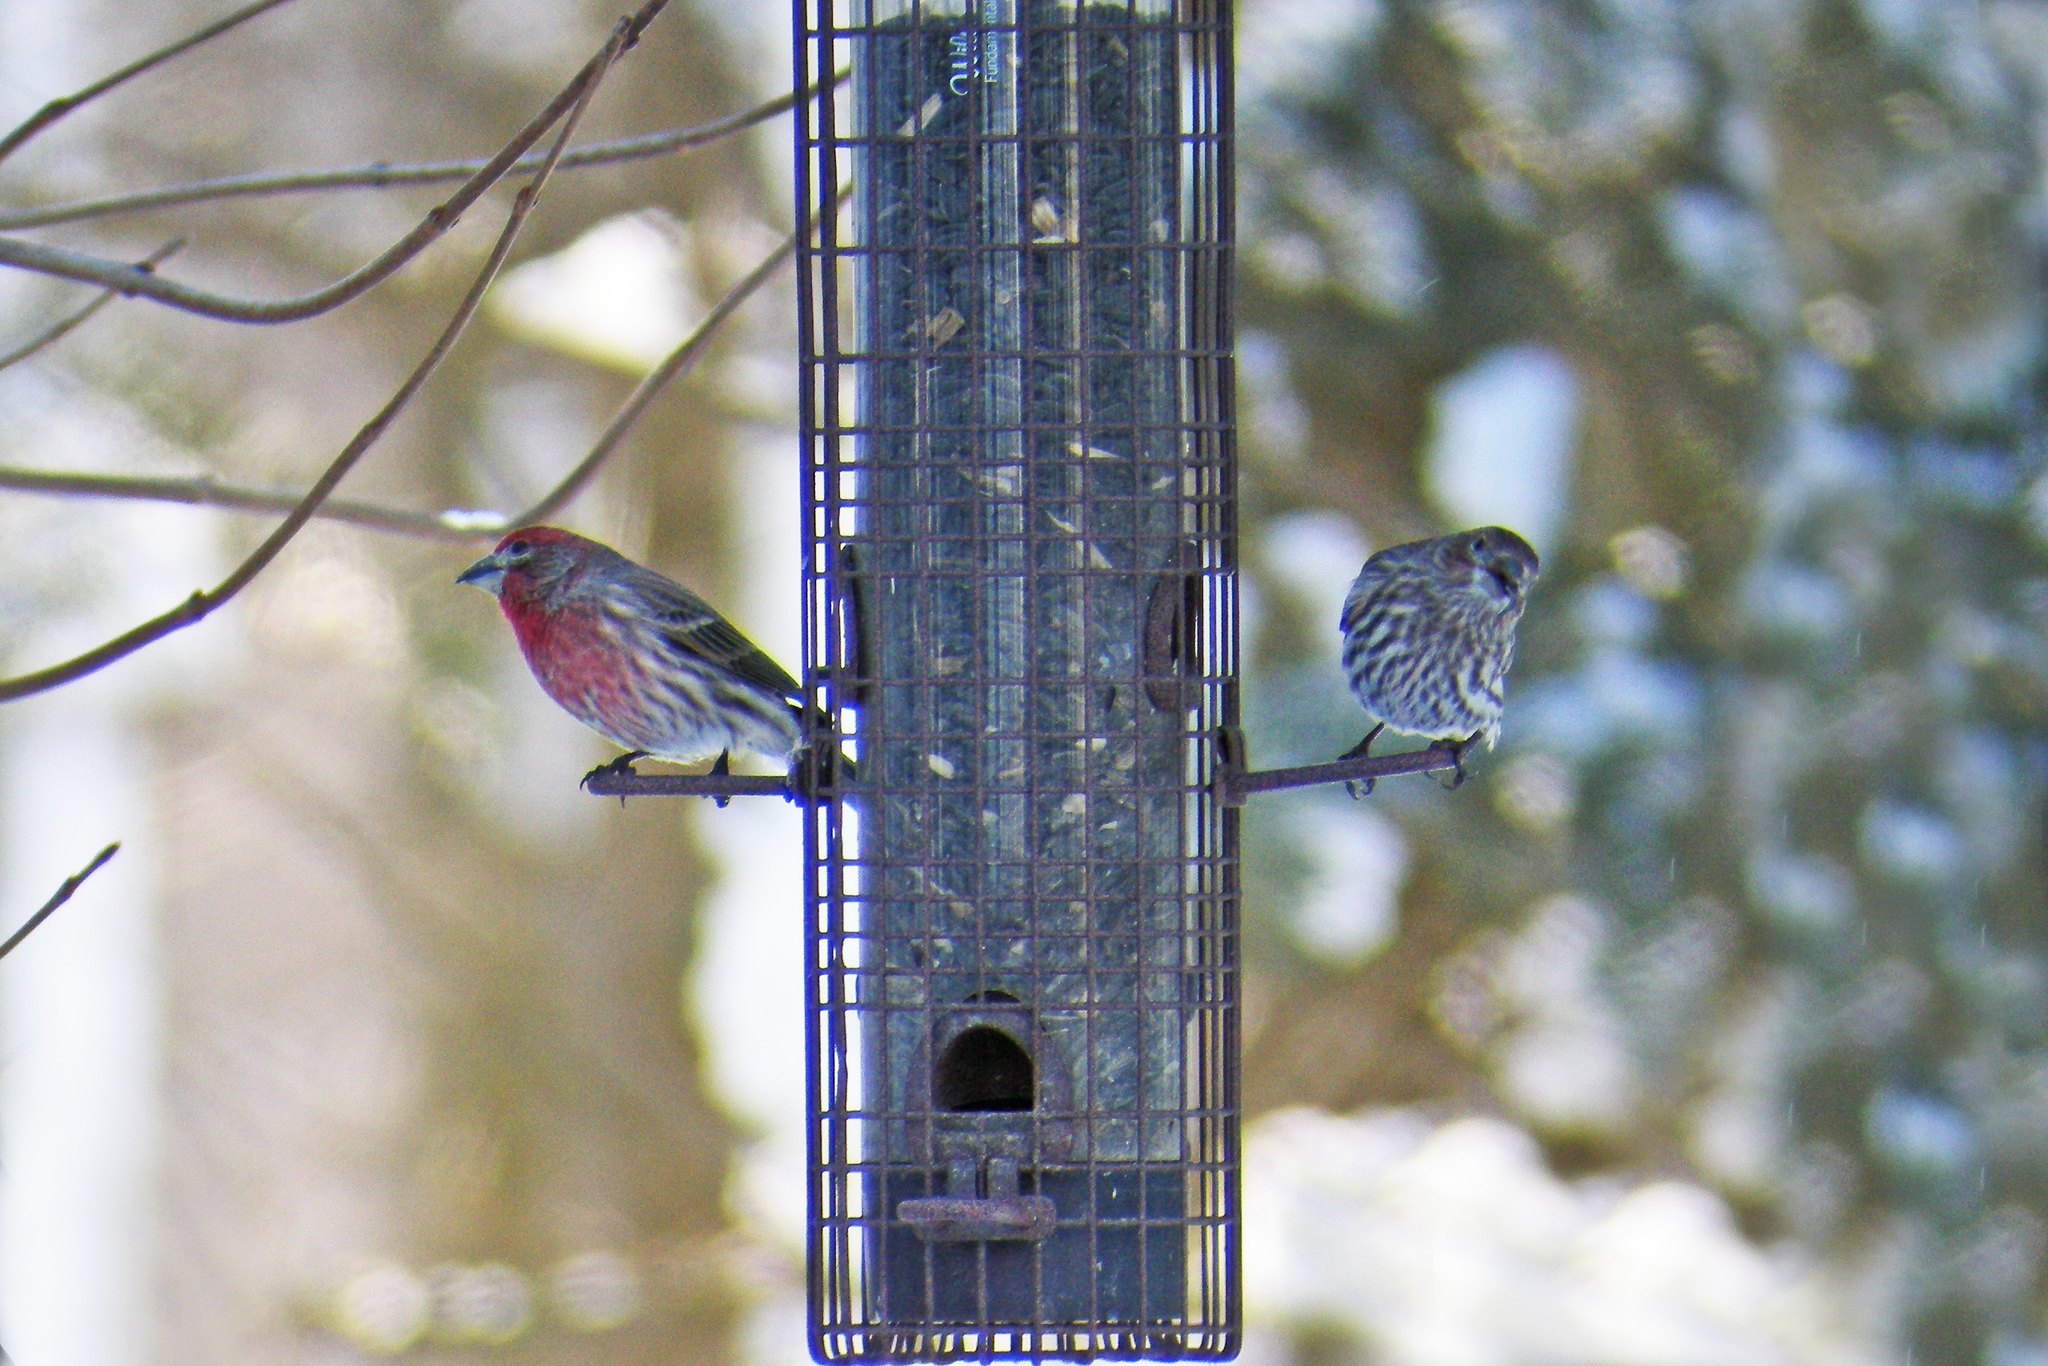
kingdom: Animalia
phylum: Chordata
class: Aves
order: Passeriformes
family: Fringillidae
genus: Haemorhous
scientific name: Haemorhous mexicanus
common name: House finch
